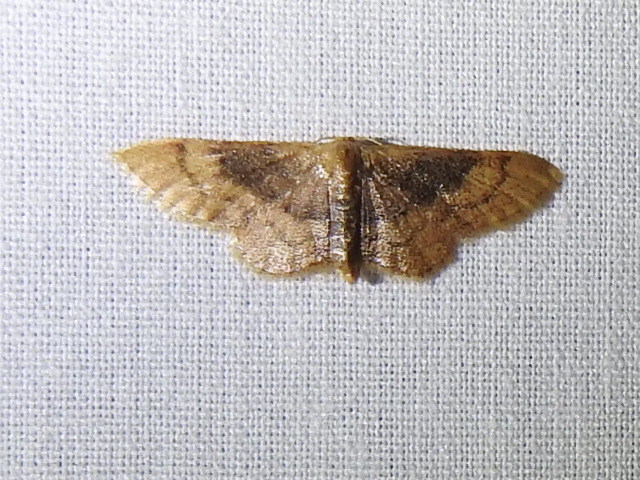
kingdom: Animalia
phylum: Arthropoda
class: Insecta
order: Lepidoptera
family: Geometridae
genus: Idaea
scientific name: Idaea demissaria
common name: Red-bordered wave
